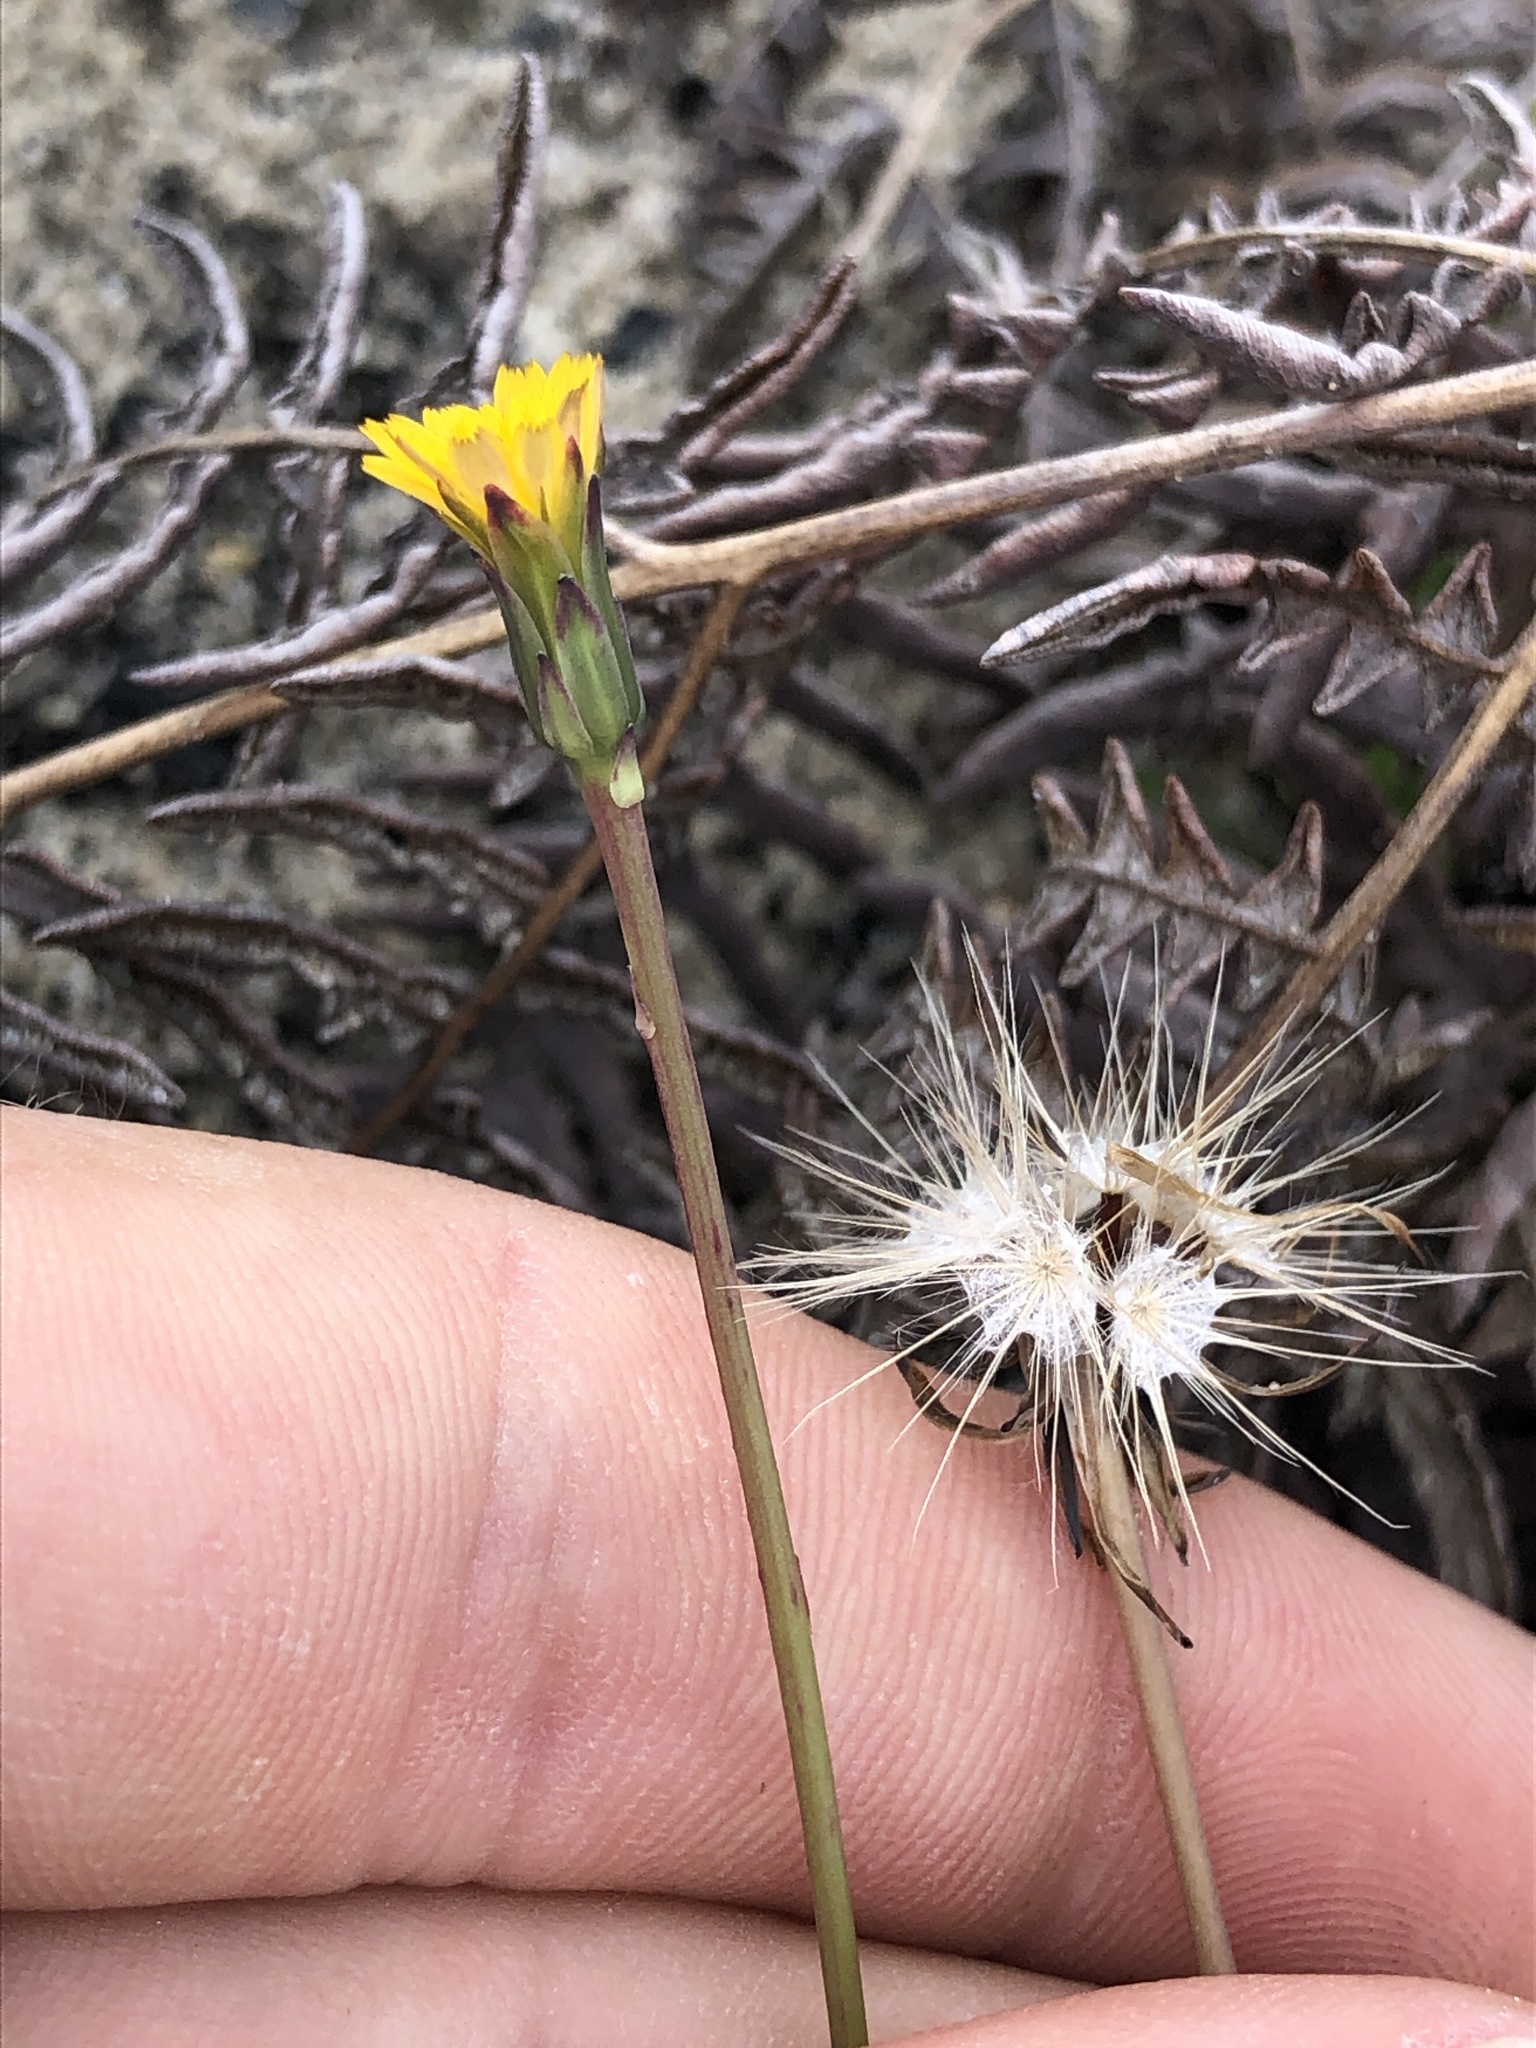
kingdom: Plantae
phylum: Tracheophyta
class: Magnoliopsida
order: Asterales
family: Asteraceae
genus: Hypochaeris
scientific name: Hypochaeris glabra
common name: Smooth catsear
